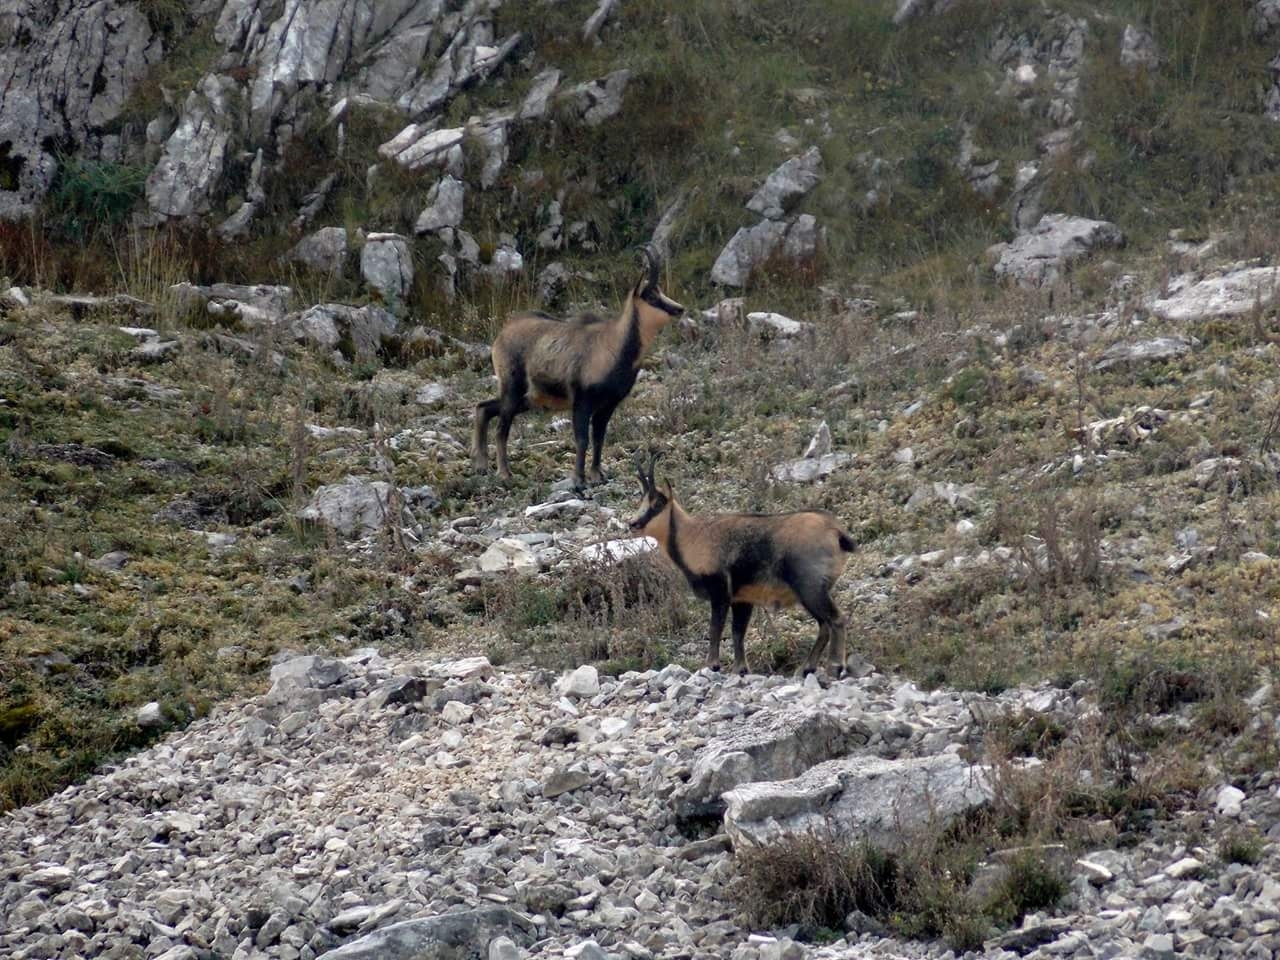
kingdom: Animalia
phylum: Chordata
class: Mammalia
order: Artiodactyla
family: Bovidae
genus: Rupicapra
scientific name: Rupicapra pyrenaica
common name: Pyrenean chamois
